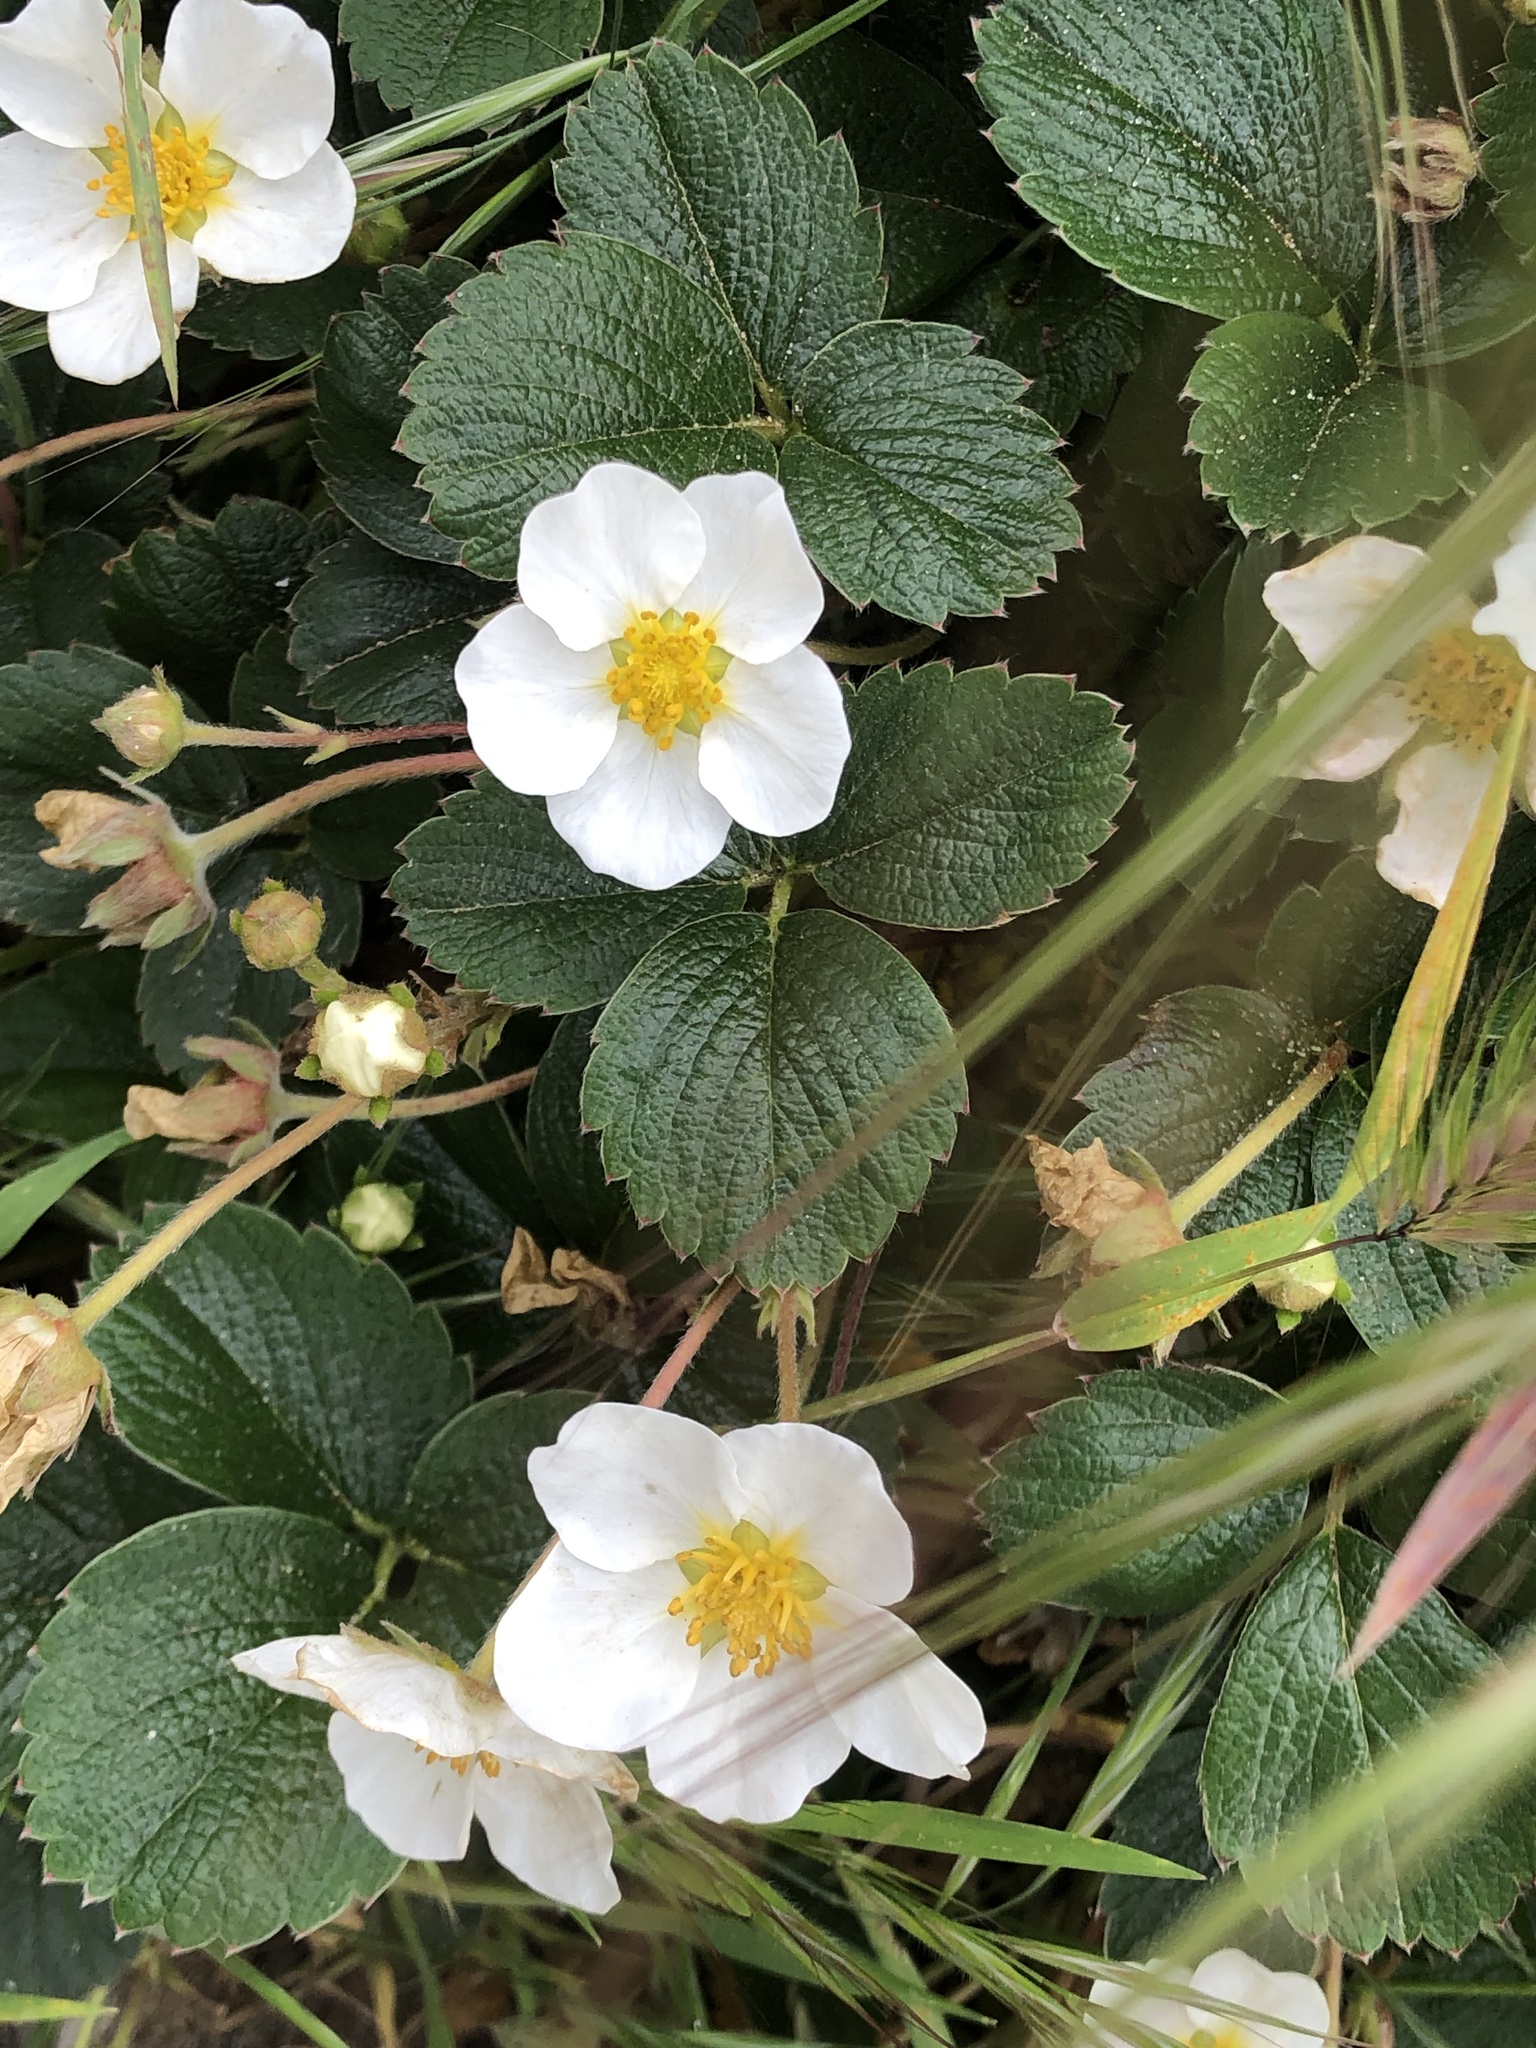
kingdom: Plantae
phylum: Tracheophyta
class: Magnoliopsida
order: Rosales
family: Rosaceae
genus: Fragaria
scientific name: Fragaria chiloensis
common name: Beach strawberry
